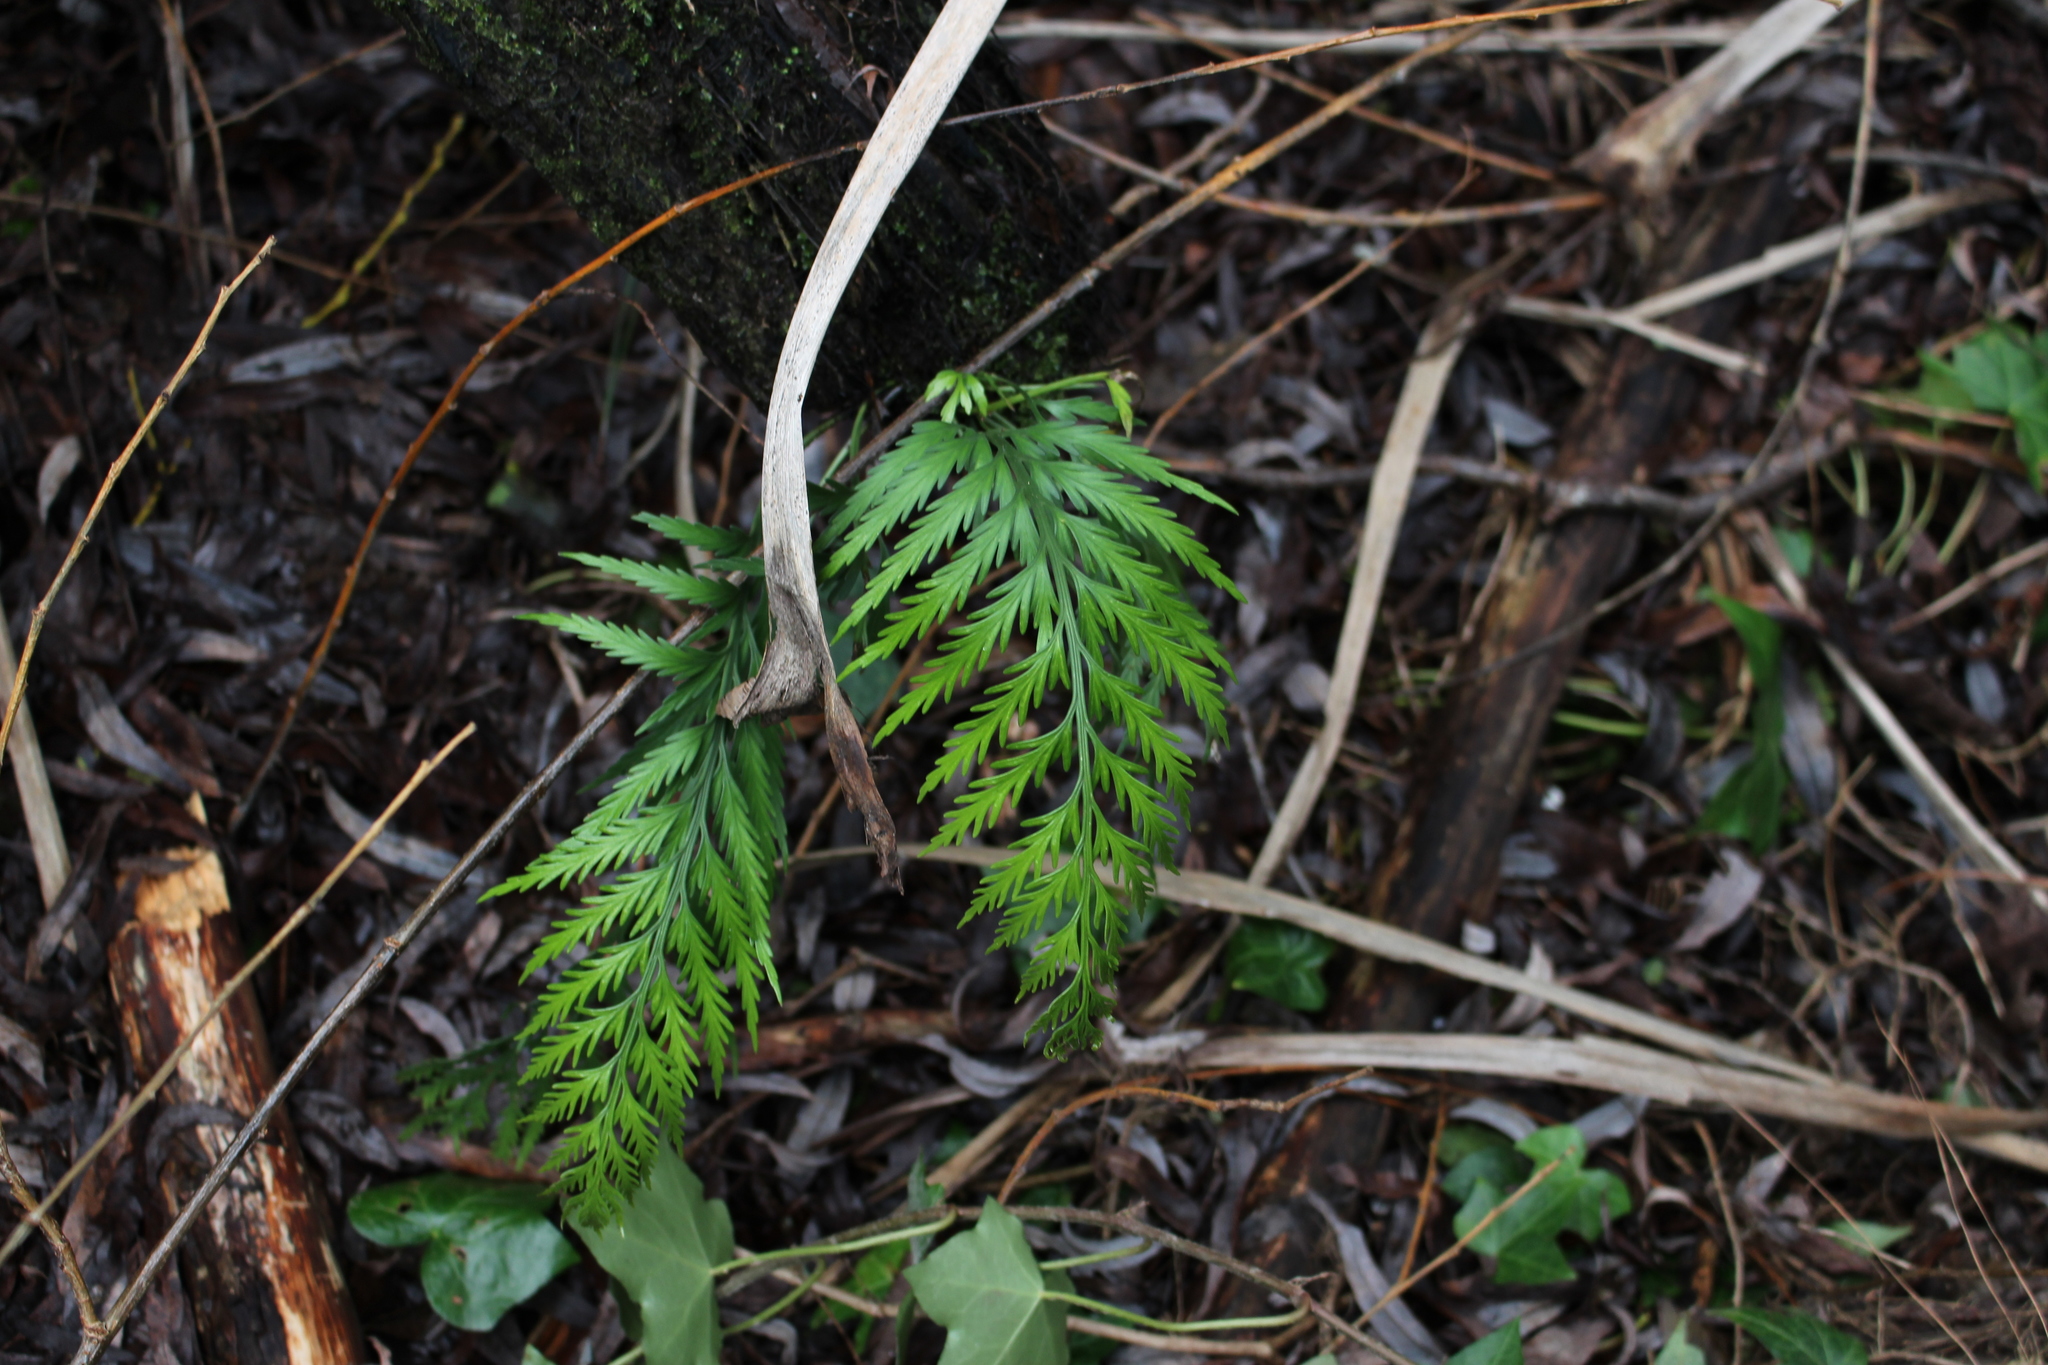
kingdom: Plantae
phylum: Tracheophyta
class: Polypodiopsida
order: Polypodiales
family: Aspleniaceae
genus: Asplenium
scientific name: Asplenium appendiculatum
